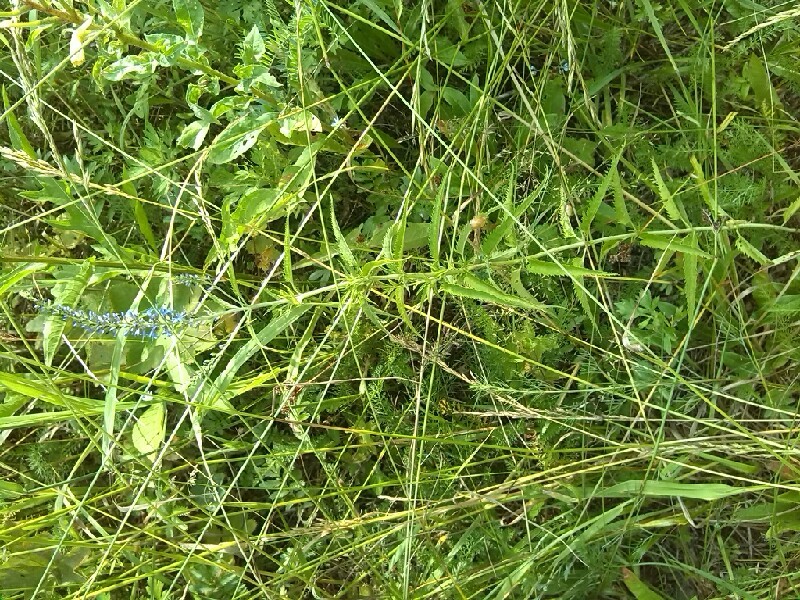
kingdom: Plantae
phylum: Tracheophyta
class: Magnoliopsida
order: Lamiales
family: Plantaginaceae
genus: Veronica
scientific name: Veronica longifolia
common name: Garden speedwell
